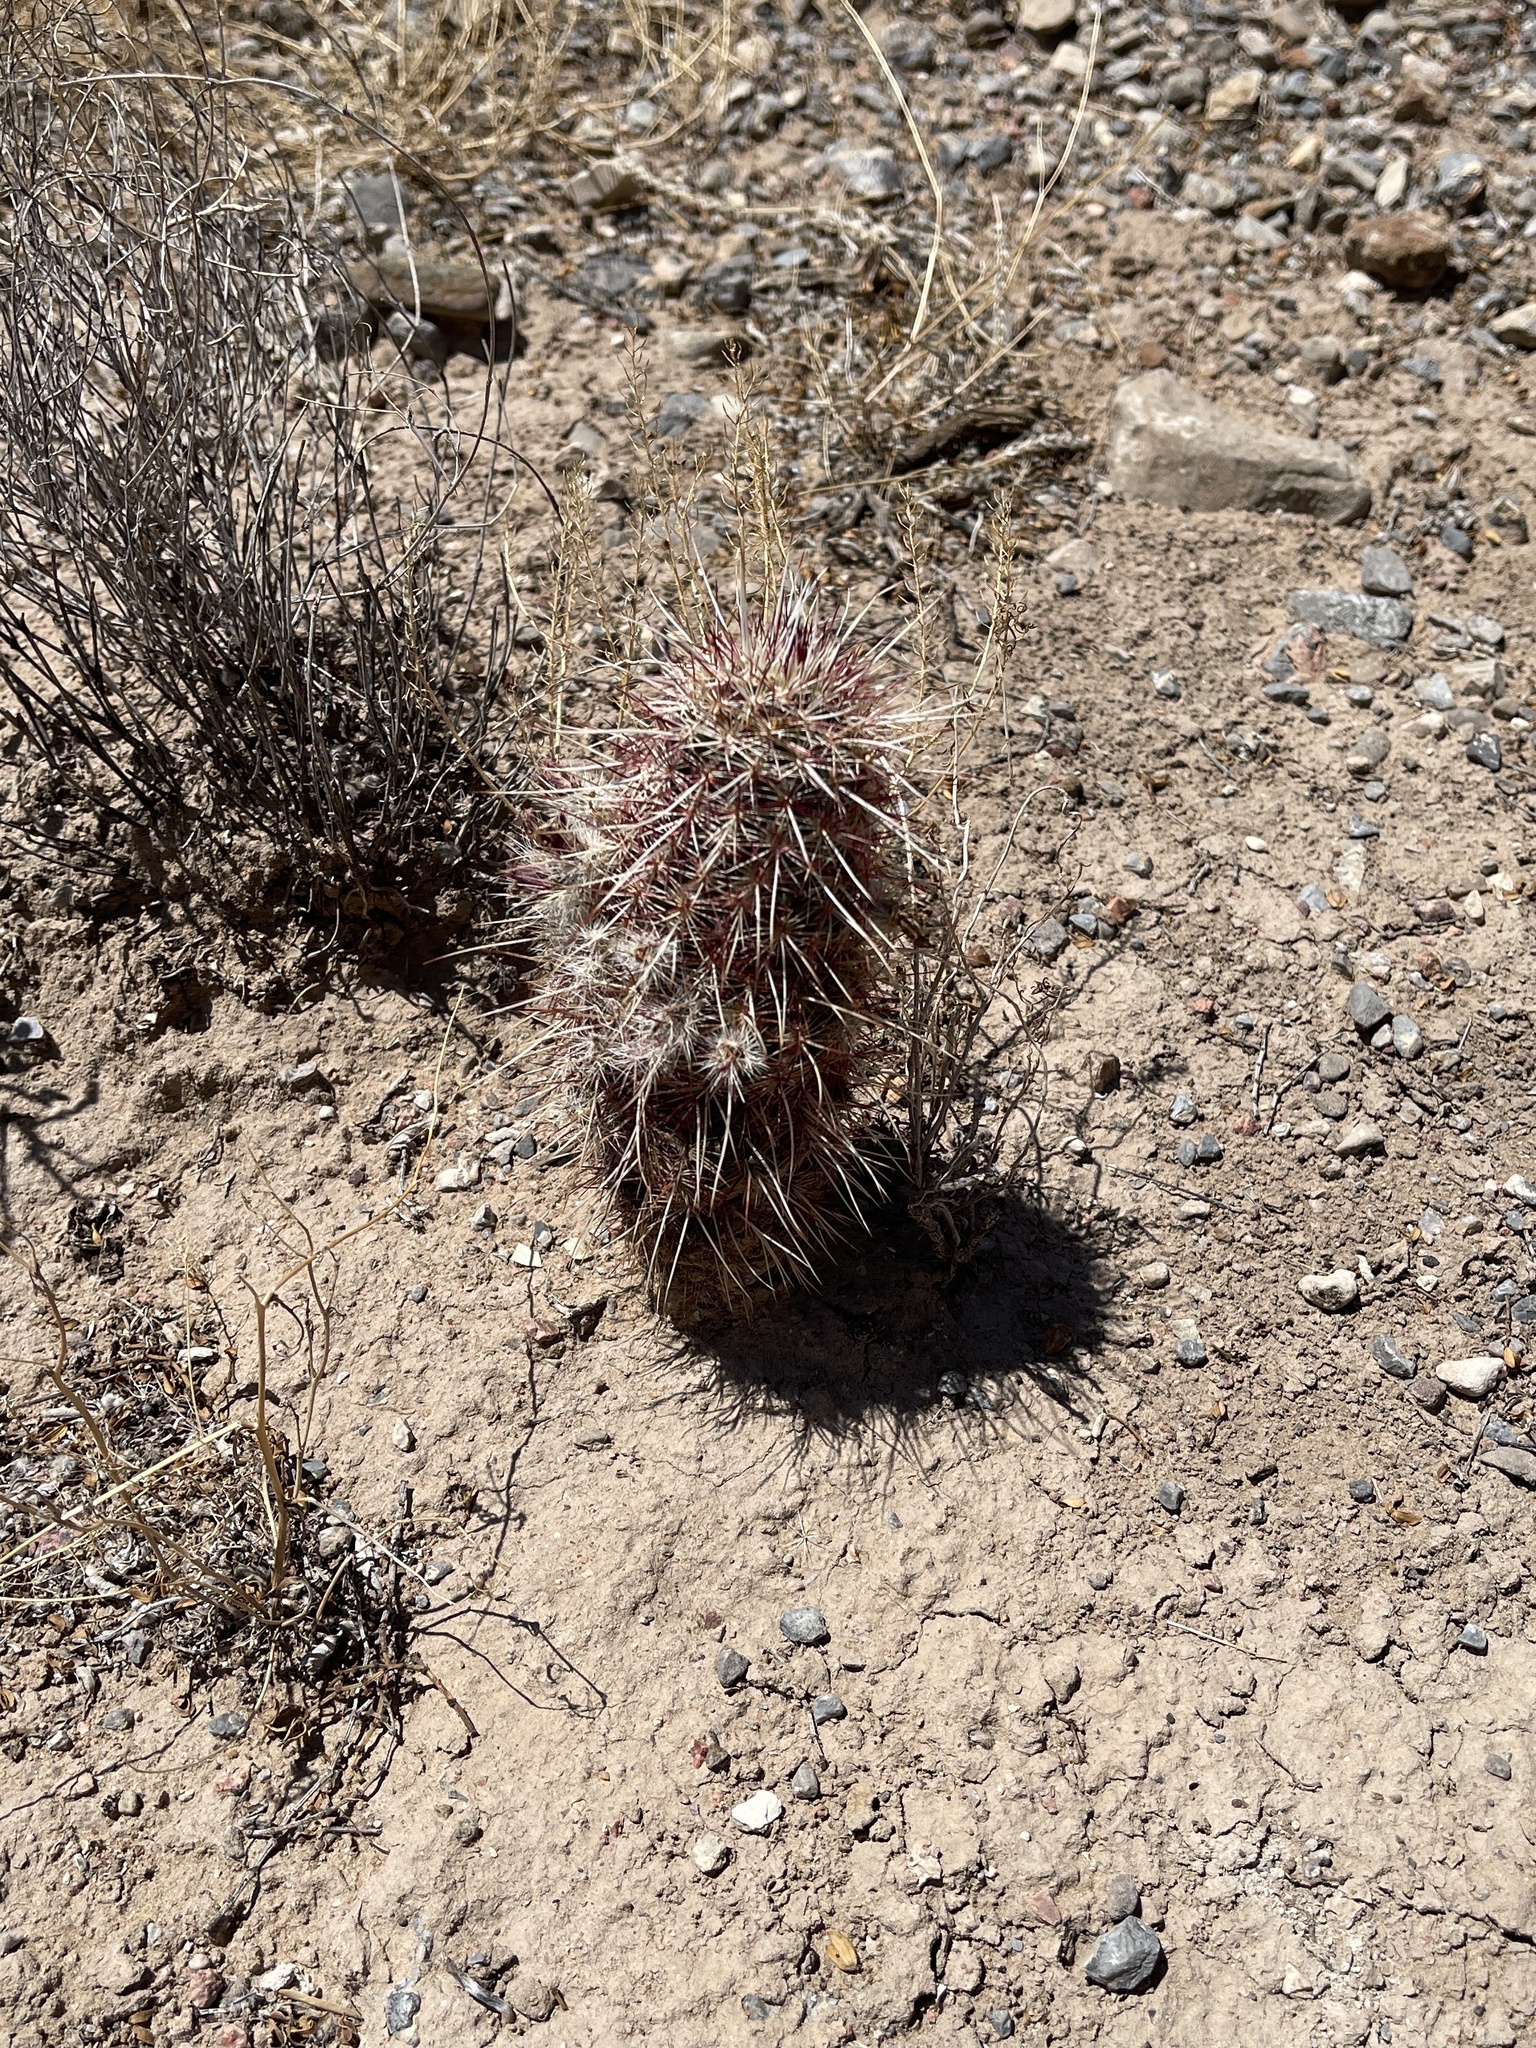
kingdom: Plantae
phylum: Tracheophyta
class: Magnoliopsida
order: Caryophyllales
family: Cactaceae
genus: Echinocereus
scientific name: Echinocereus viridiflorus
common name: Nylon hedgehog cactus
